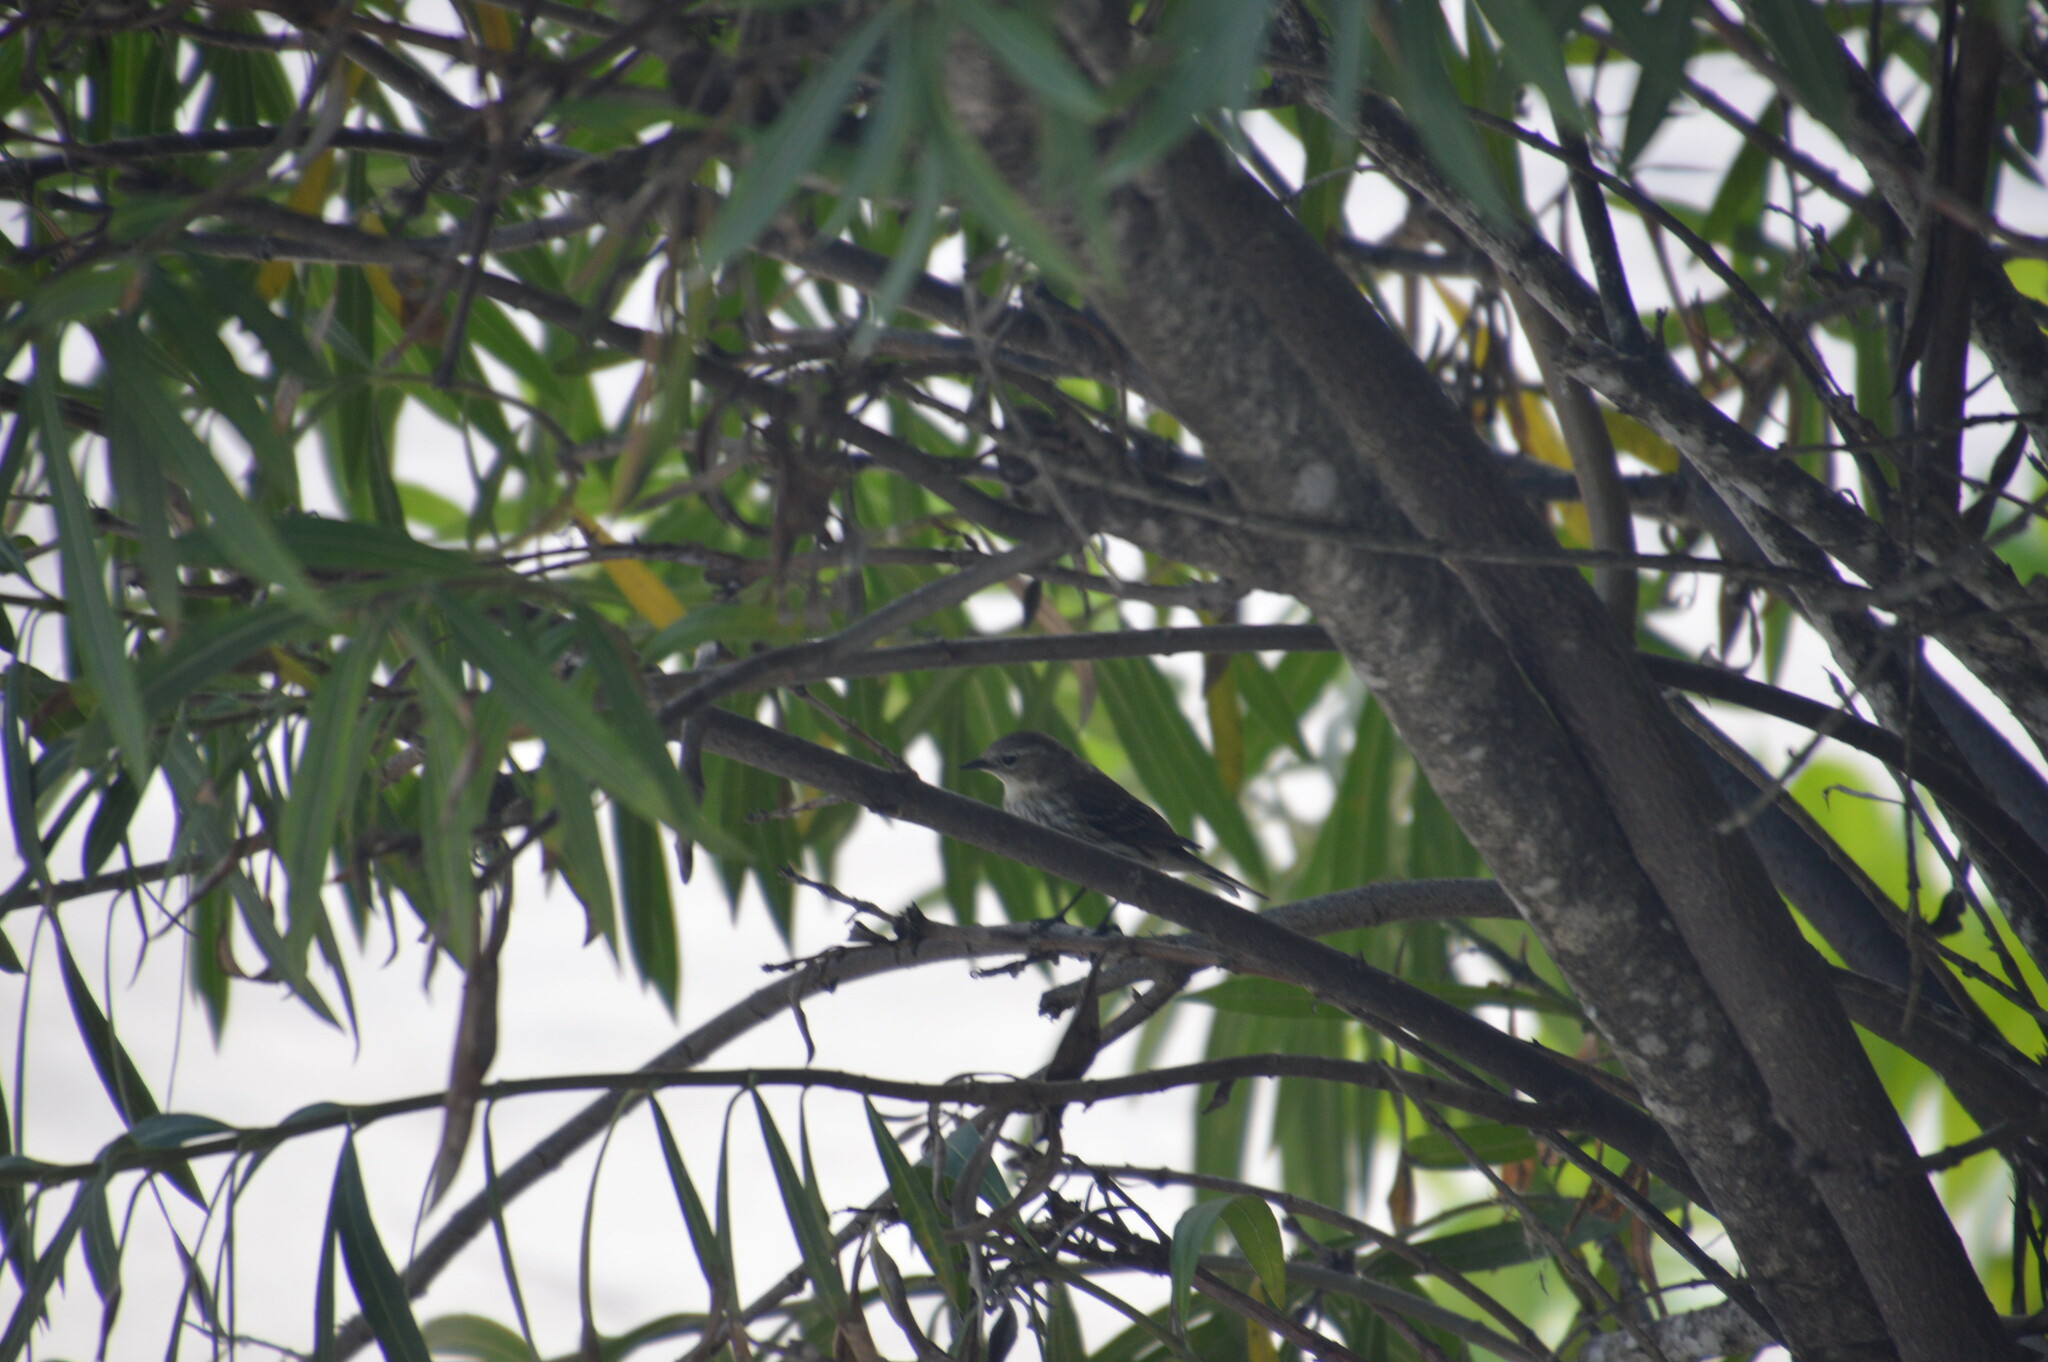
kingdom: Animalia
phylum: Chordata
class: Aves
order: Passeriformes
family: Parulidae
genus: Setophaga
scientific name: Setophaga coronata
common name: Myrtle warbler
